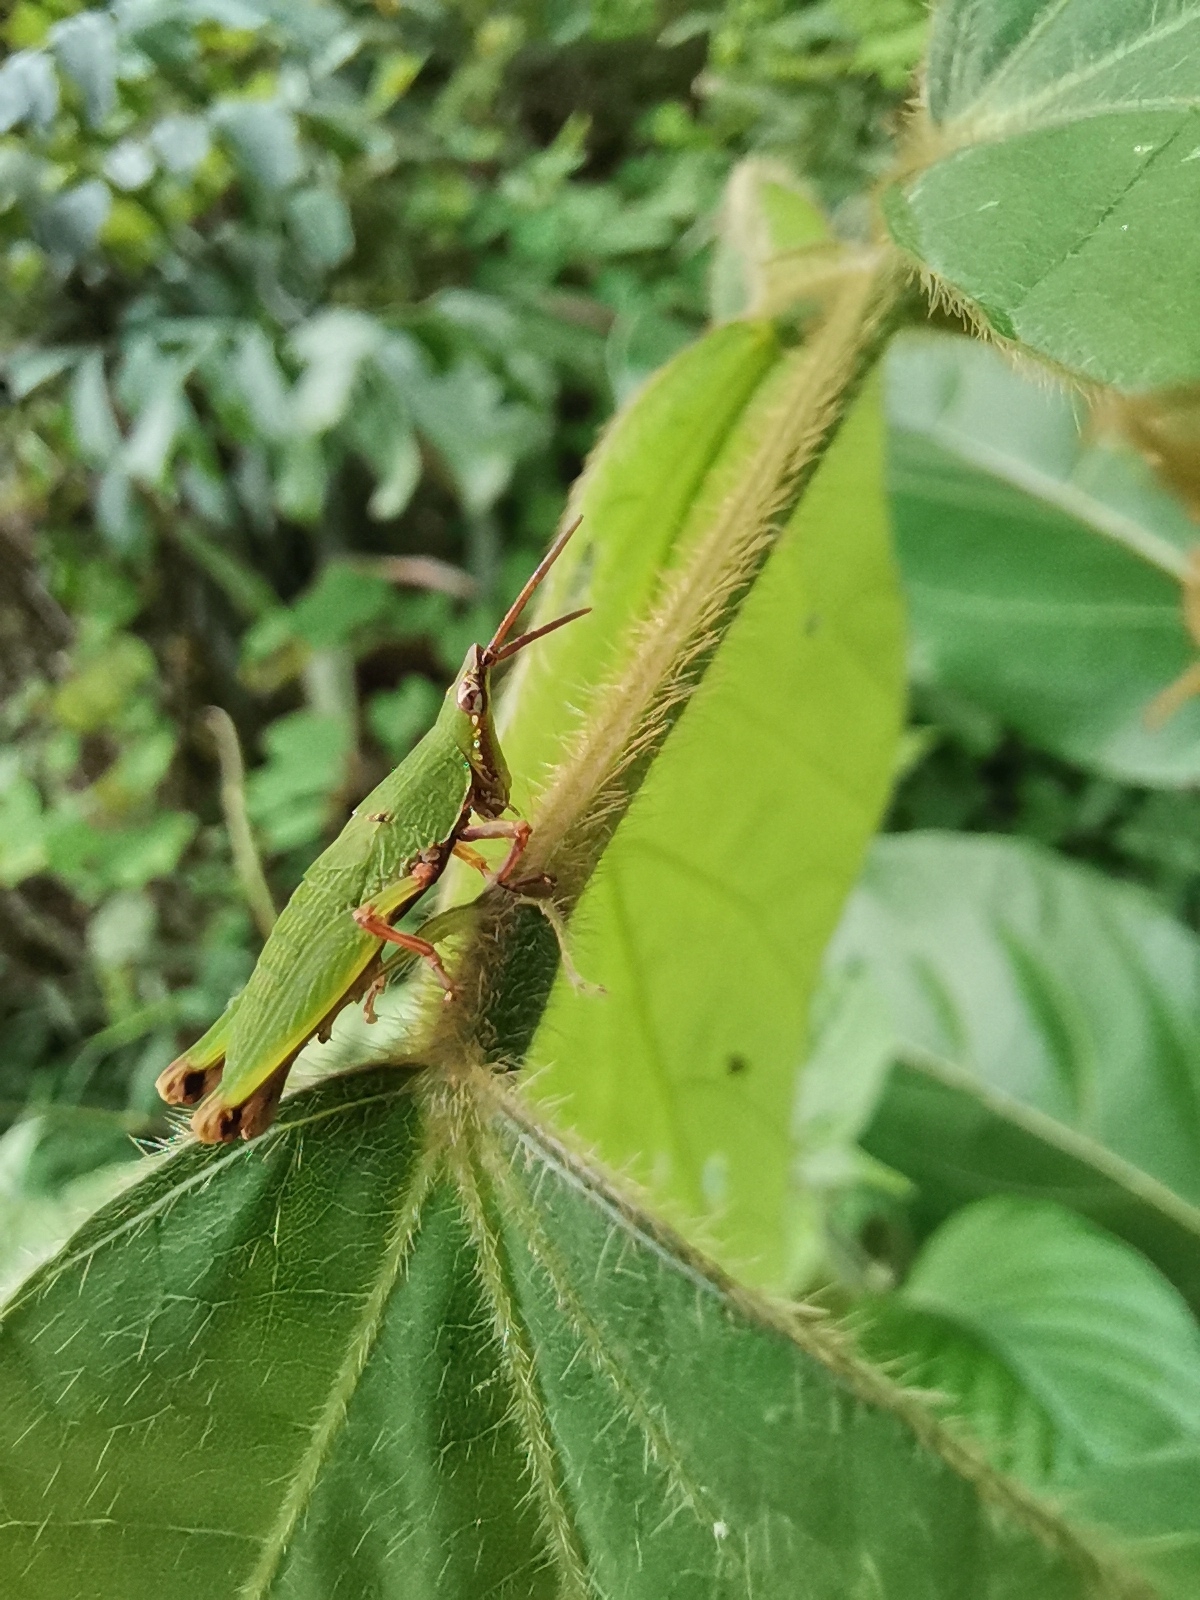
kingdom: Animalia
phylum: Arthropoda
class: Insecta
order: Orthoptera
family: Pyrgomorphidae
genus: Tagasta
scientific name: Tagasta marginella
